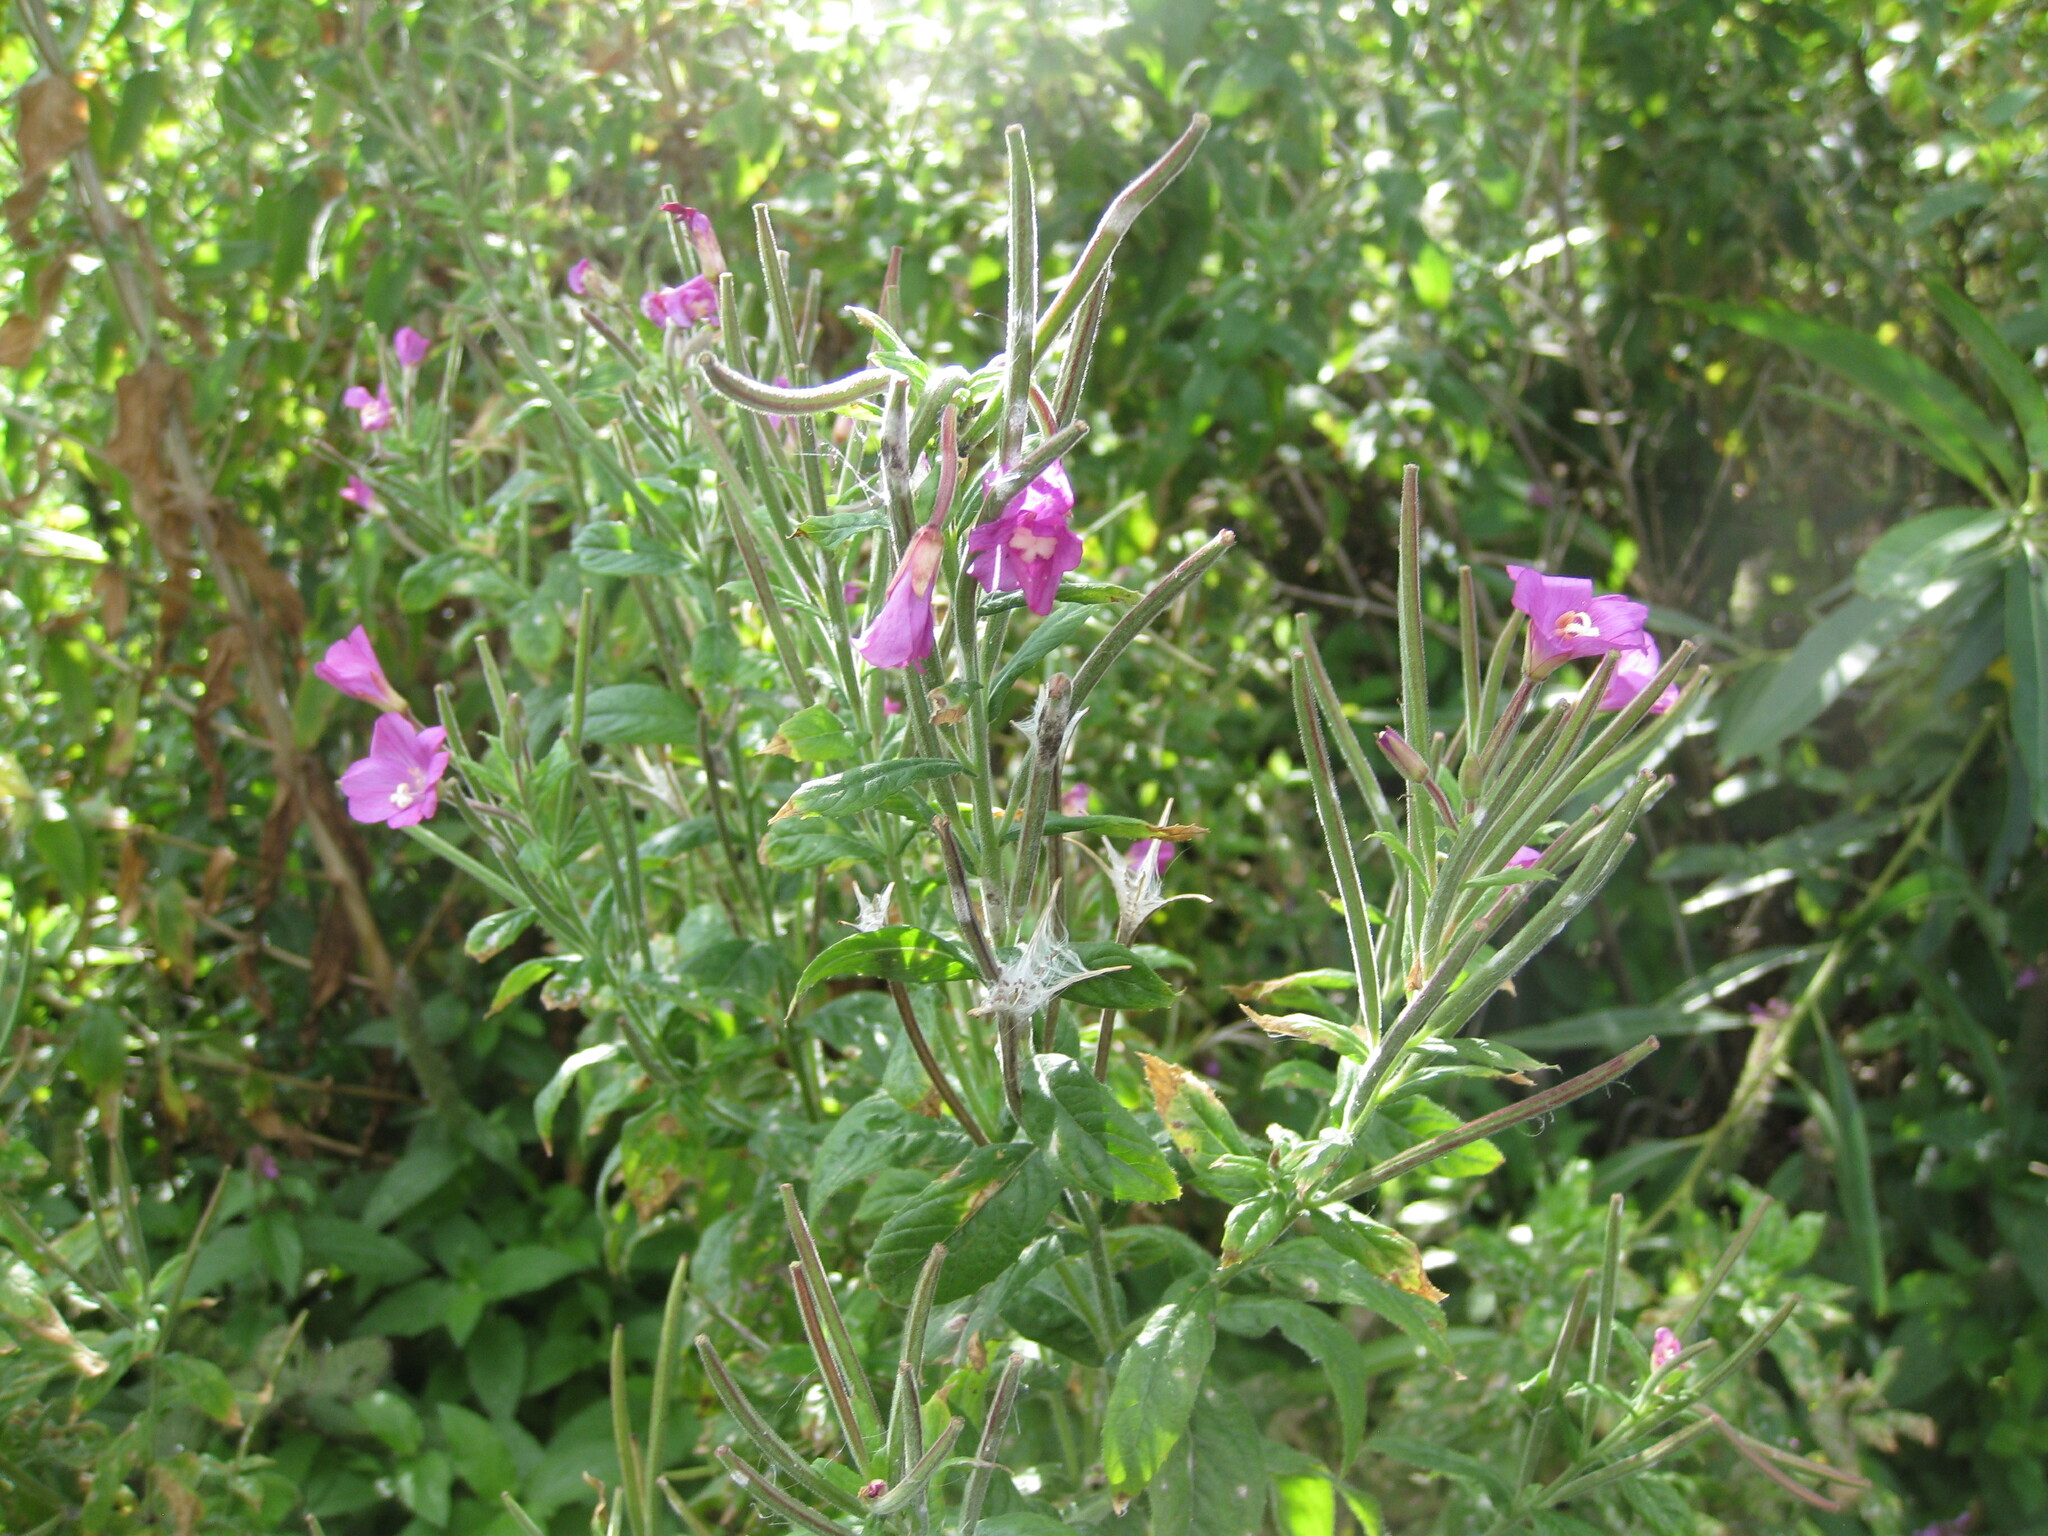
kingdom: Plantae
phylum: Tracheophyta
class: Magnoliopsida
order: Myrtales
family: Onagraceae
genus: Epilobium
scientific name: Epilobium hirsutum
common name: Great willowherb
